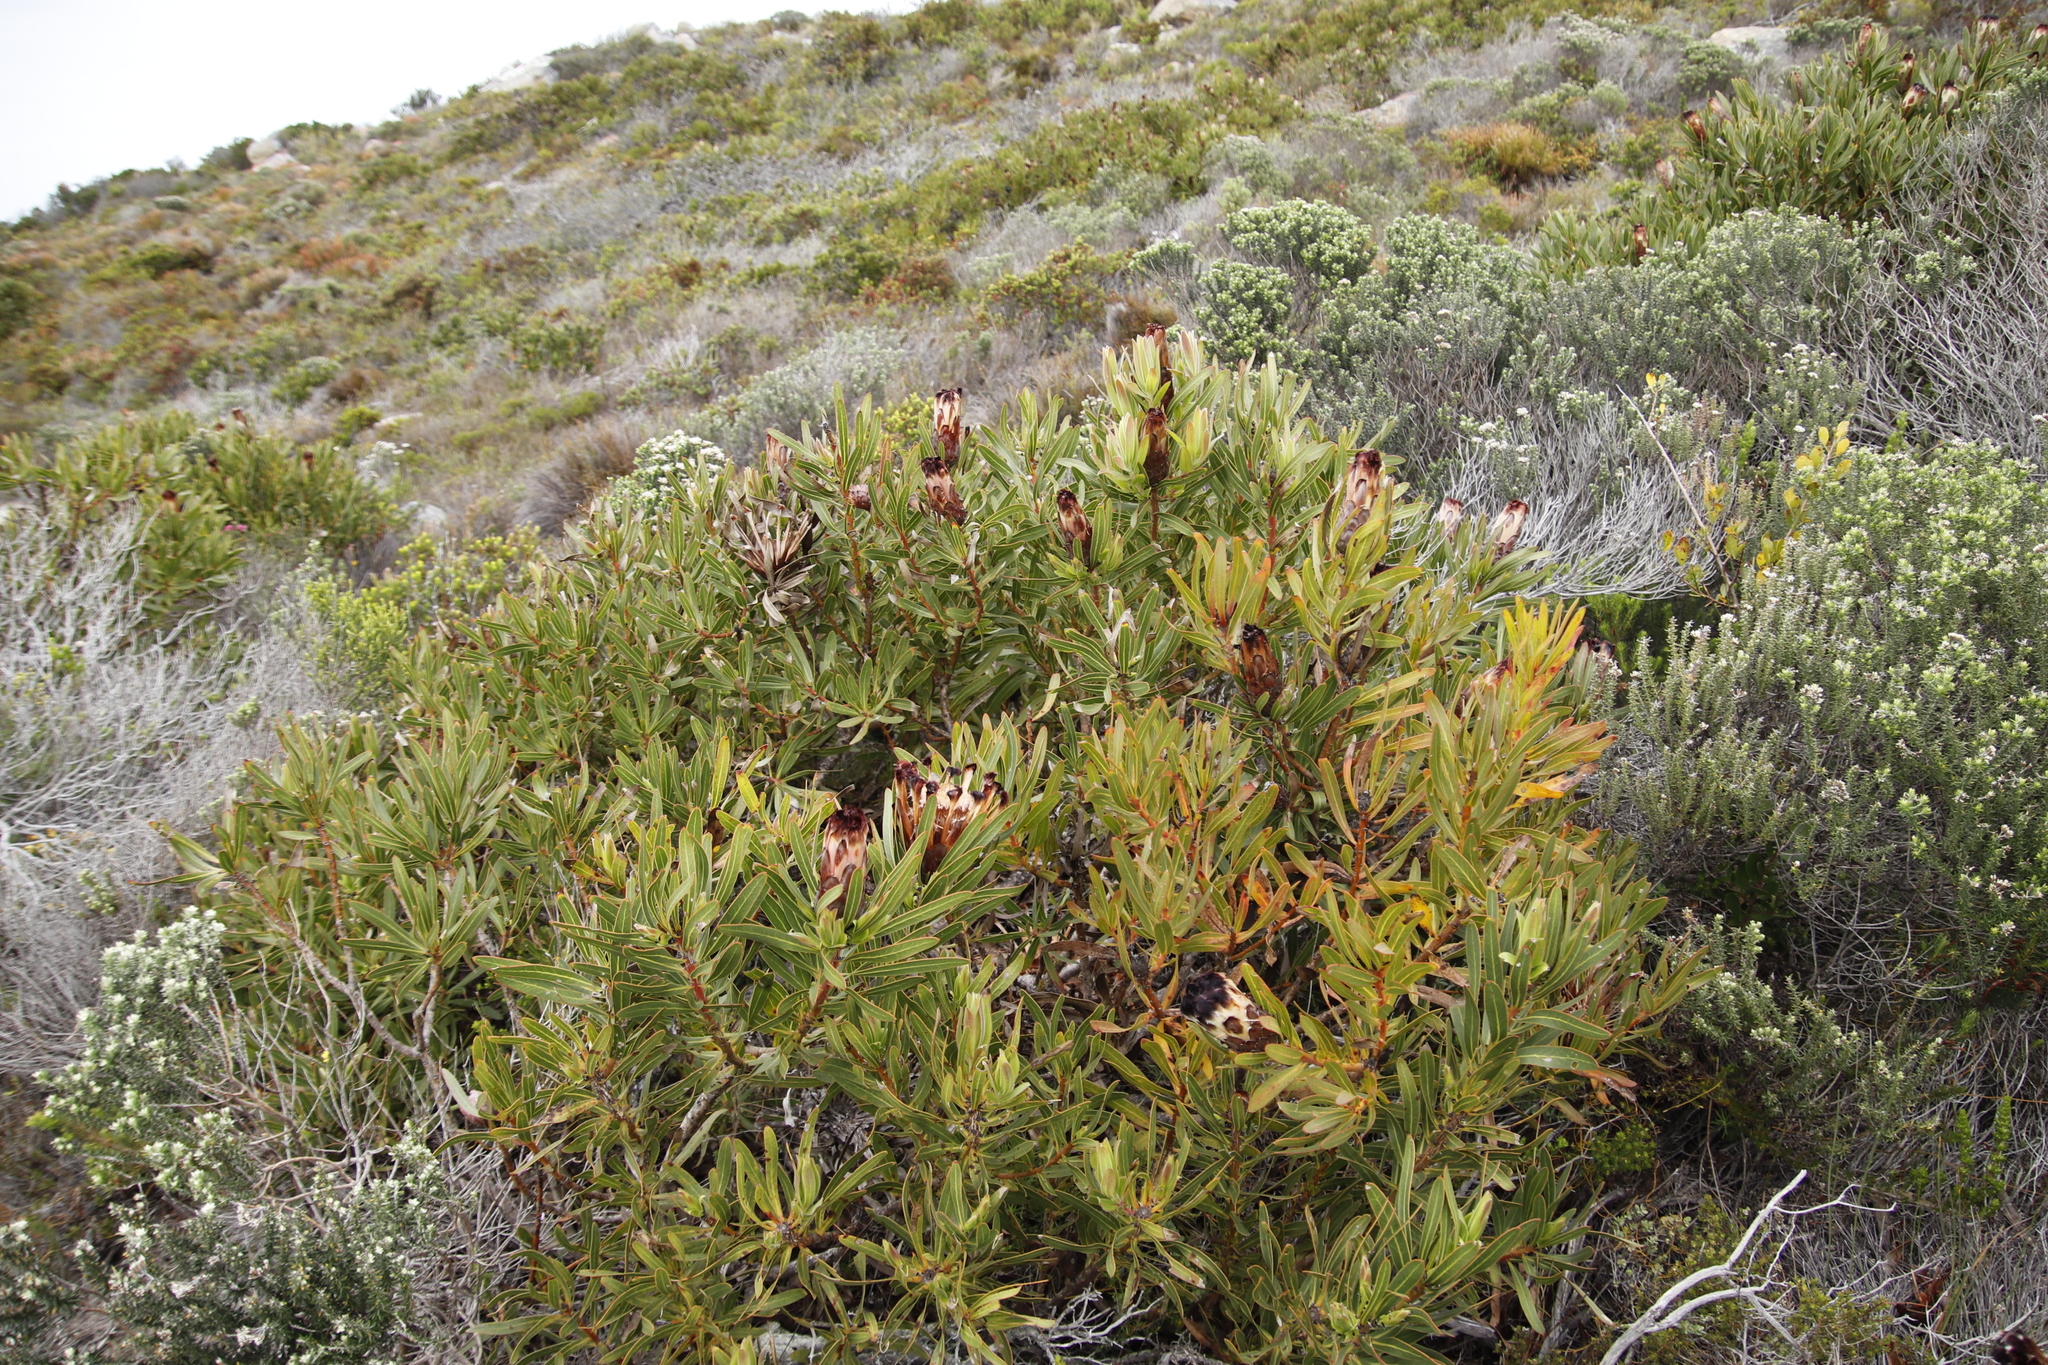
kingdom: Plantae
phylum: Tracheophyta
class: Magnoliopsida
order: Proteales
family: Proteaceae
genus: Protea
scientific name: Protea lepidocarpodendron
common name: Black-bearded protea
